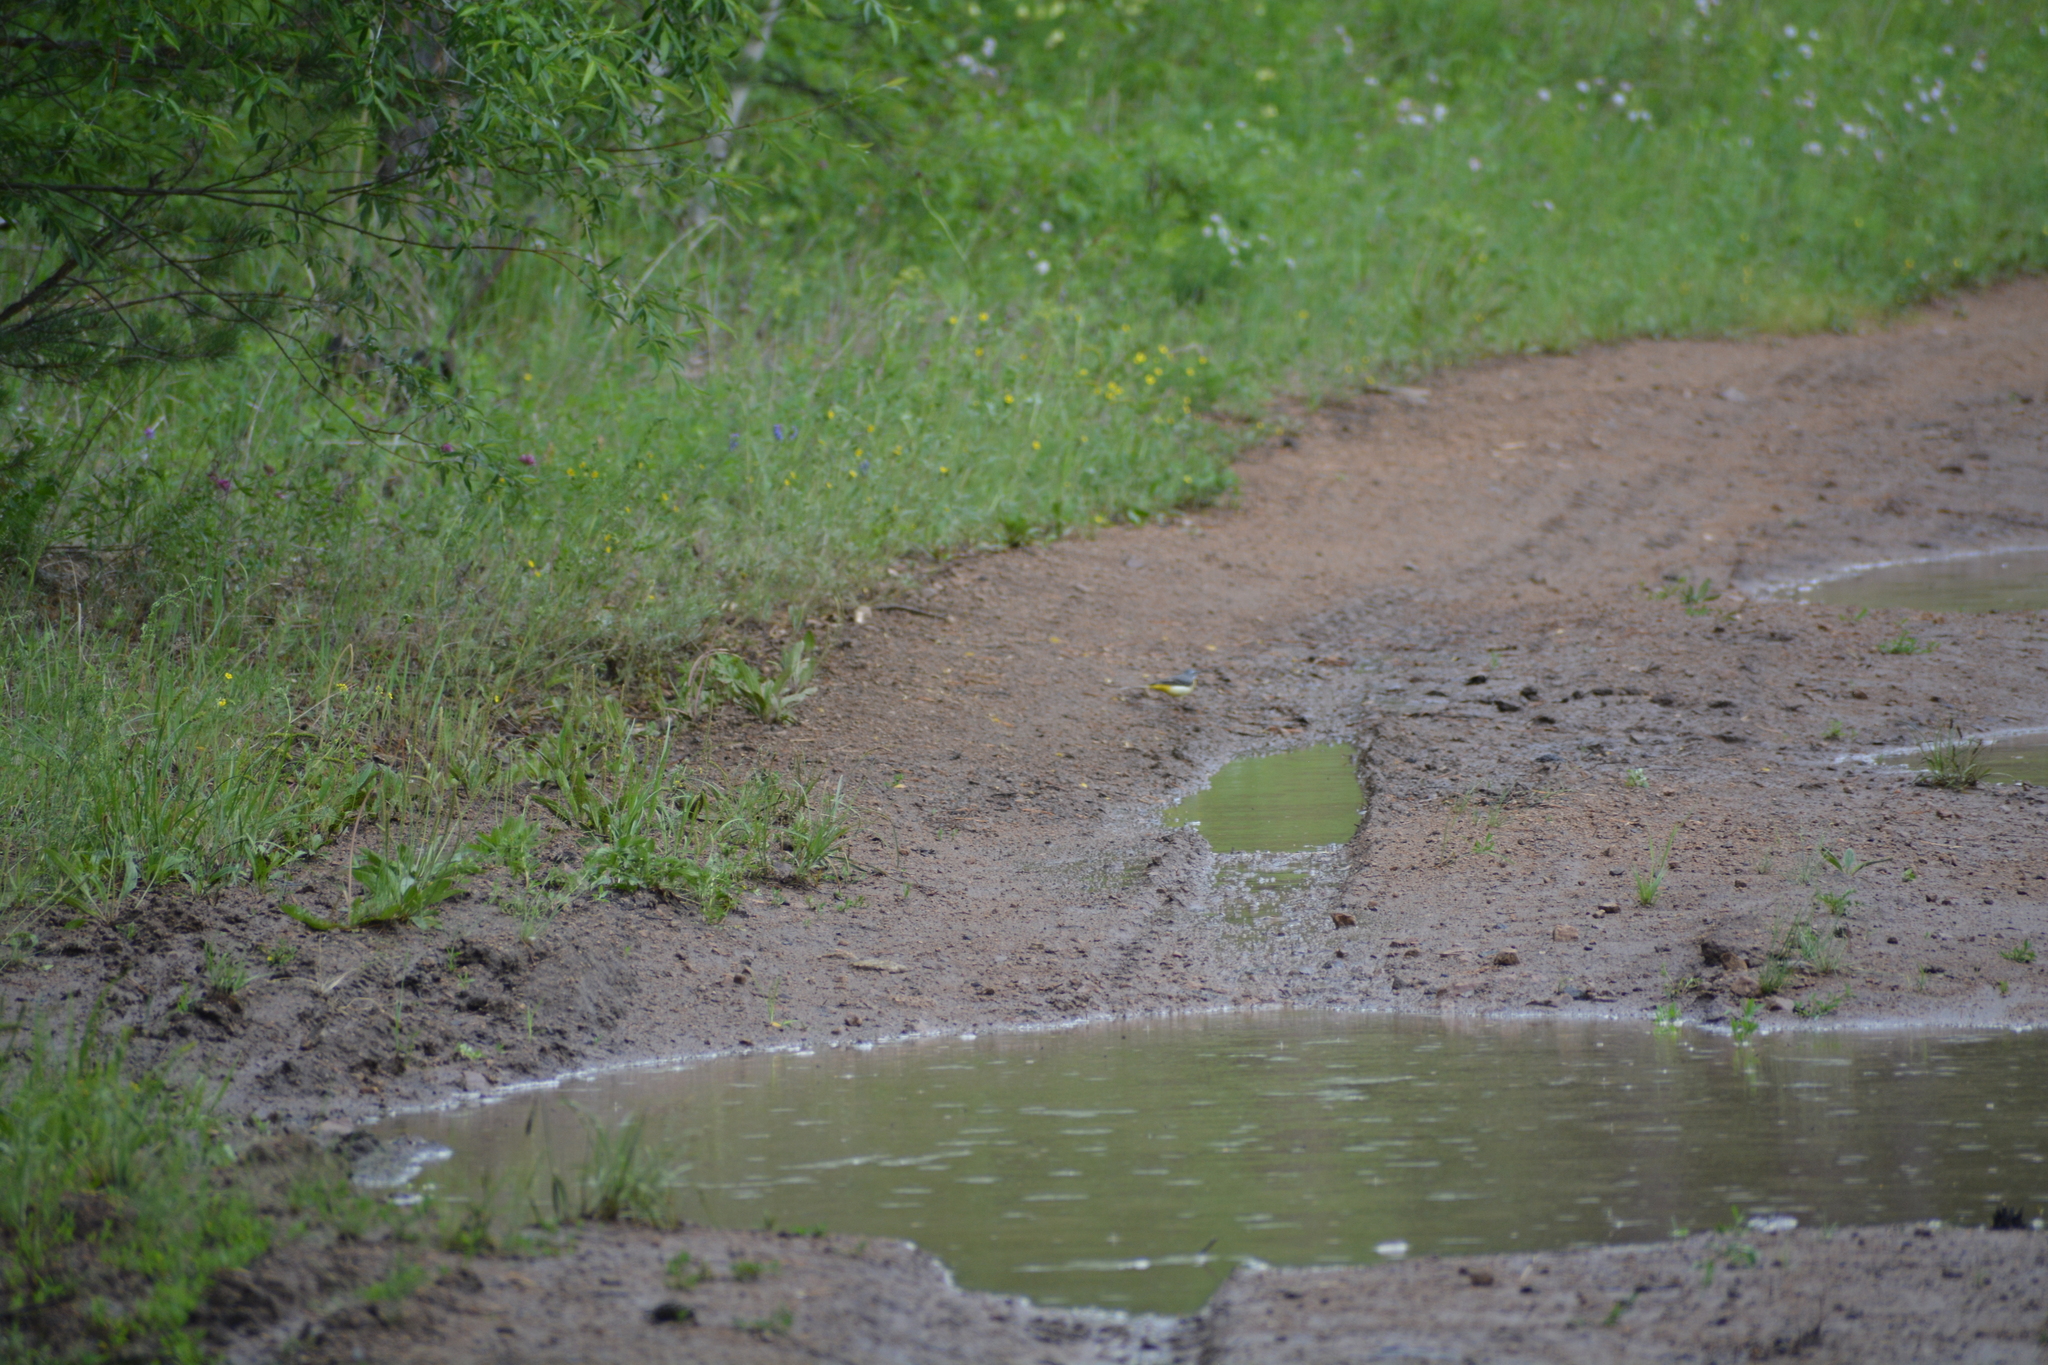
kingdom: Animalia
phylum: Chordata
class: Aves
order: Passeriformes
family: Motacillidae
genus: Motacilla
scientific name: Motacilla cinerea
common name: Grey wagtail
